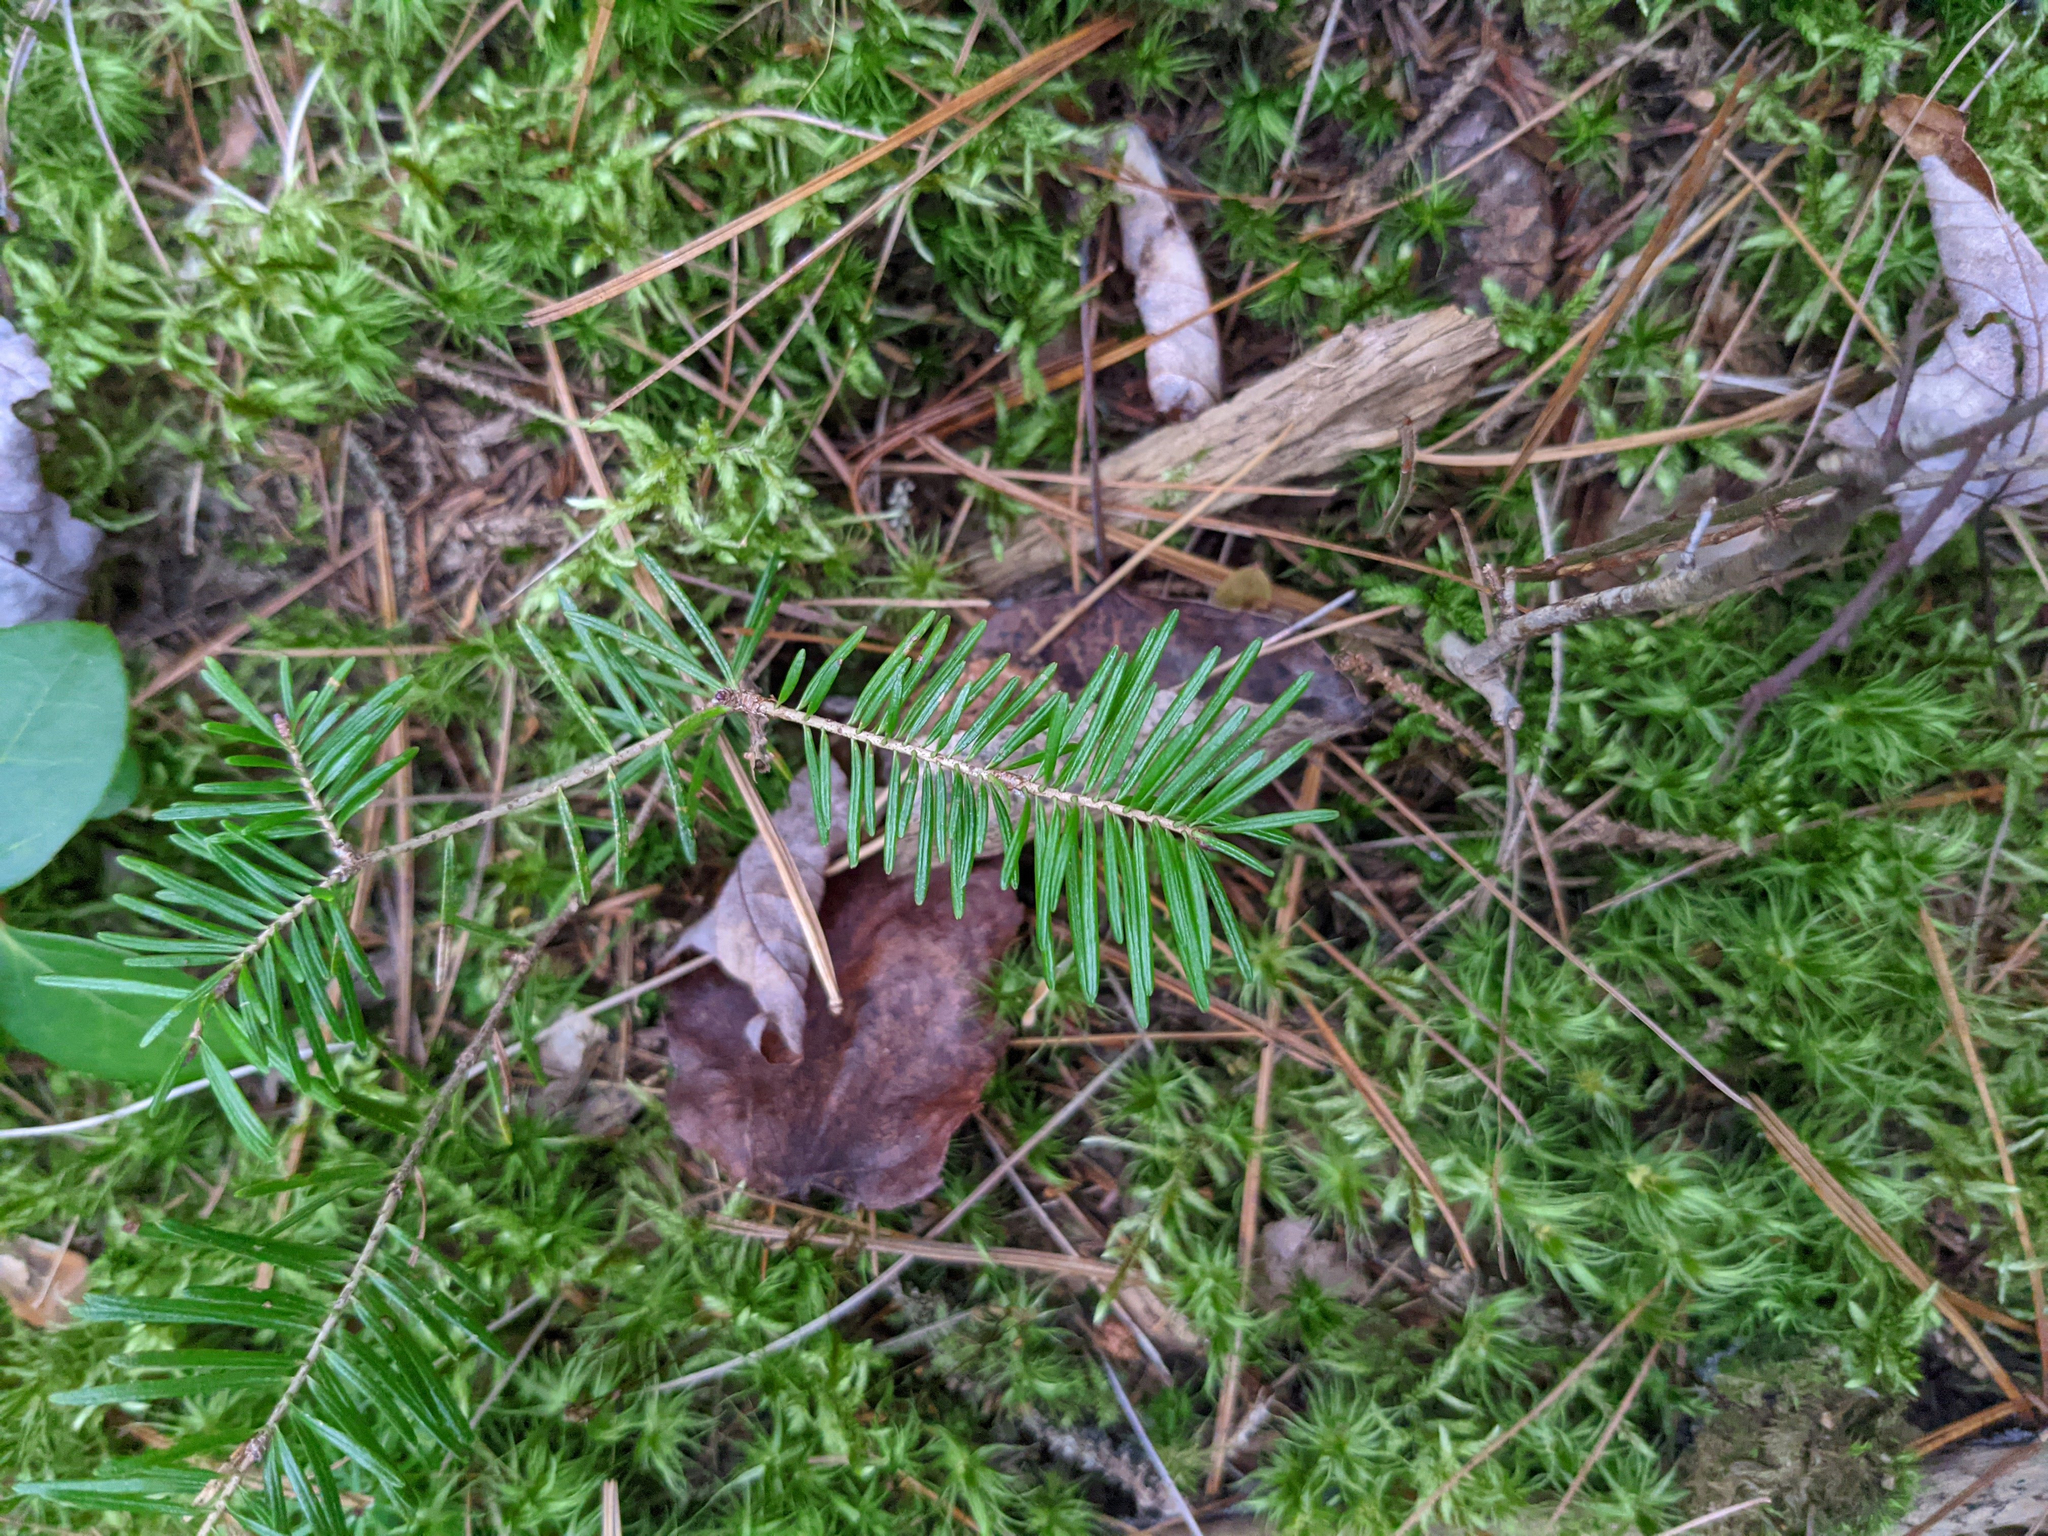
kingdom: Plantae
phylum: Tracheophyta
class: Pinopsida
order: Pinales
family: Pinaceae
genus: Abies
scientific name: Abies balsamea
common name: Balsam fir
